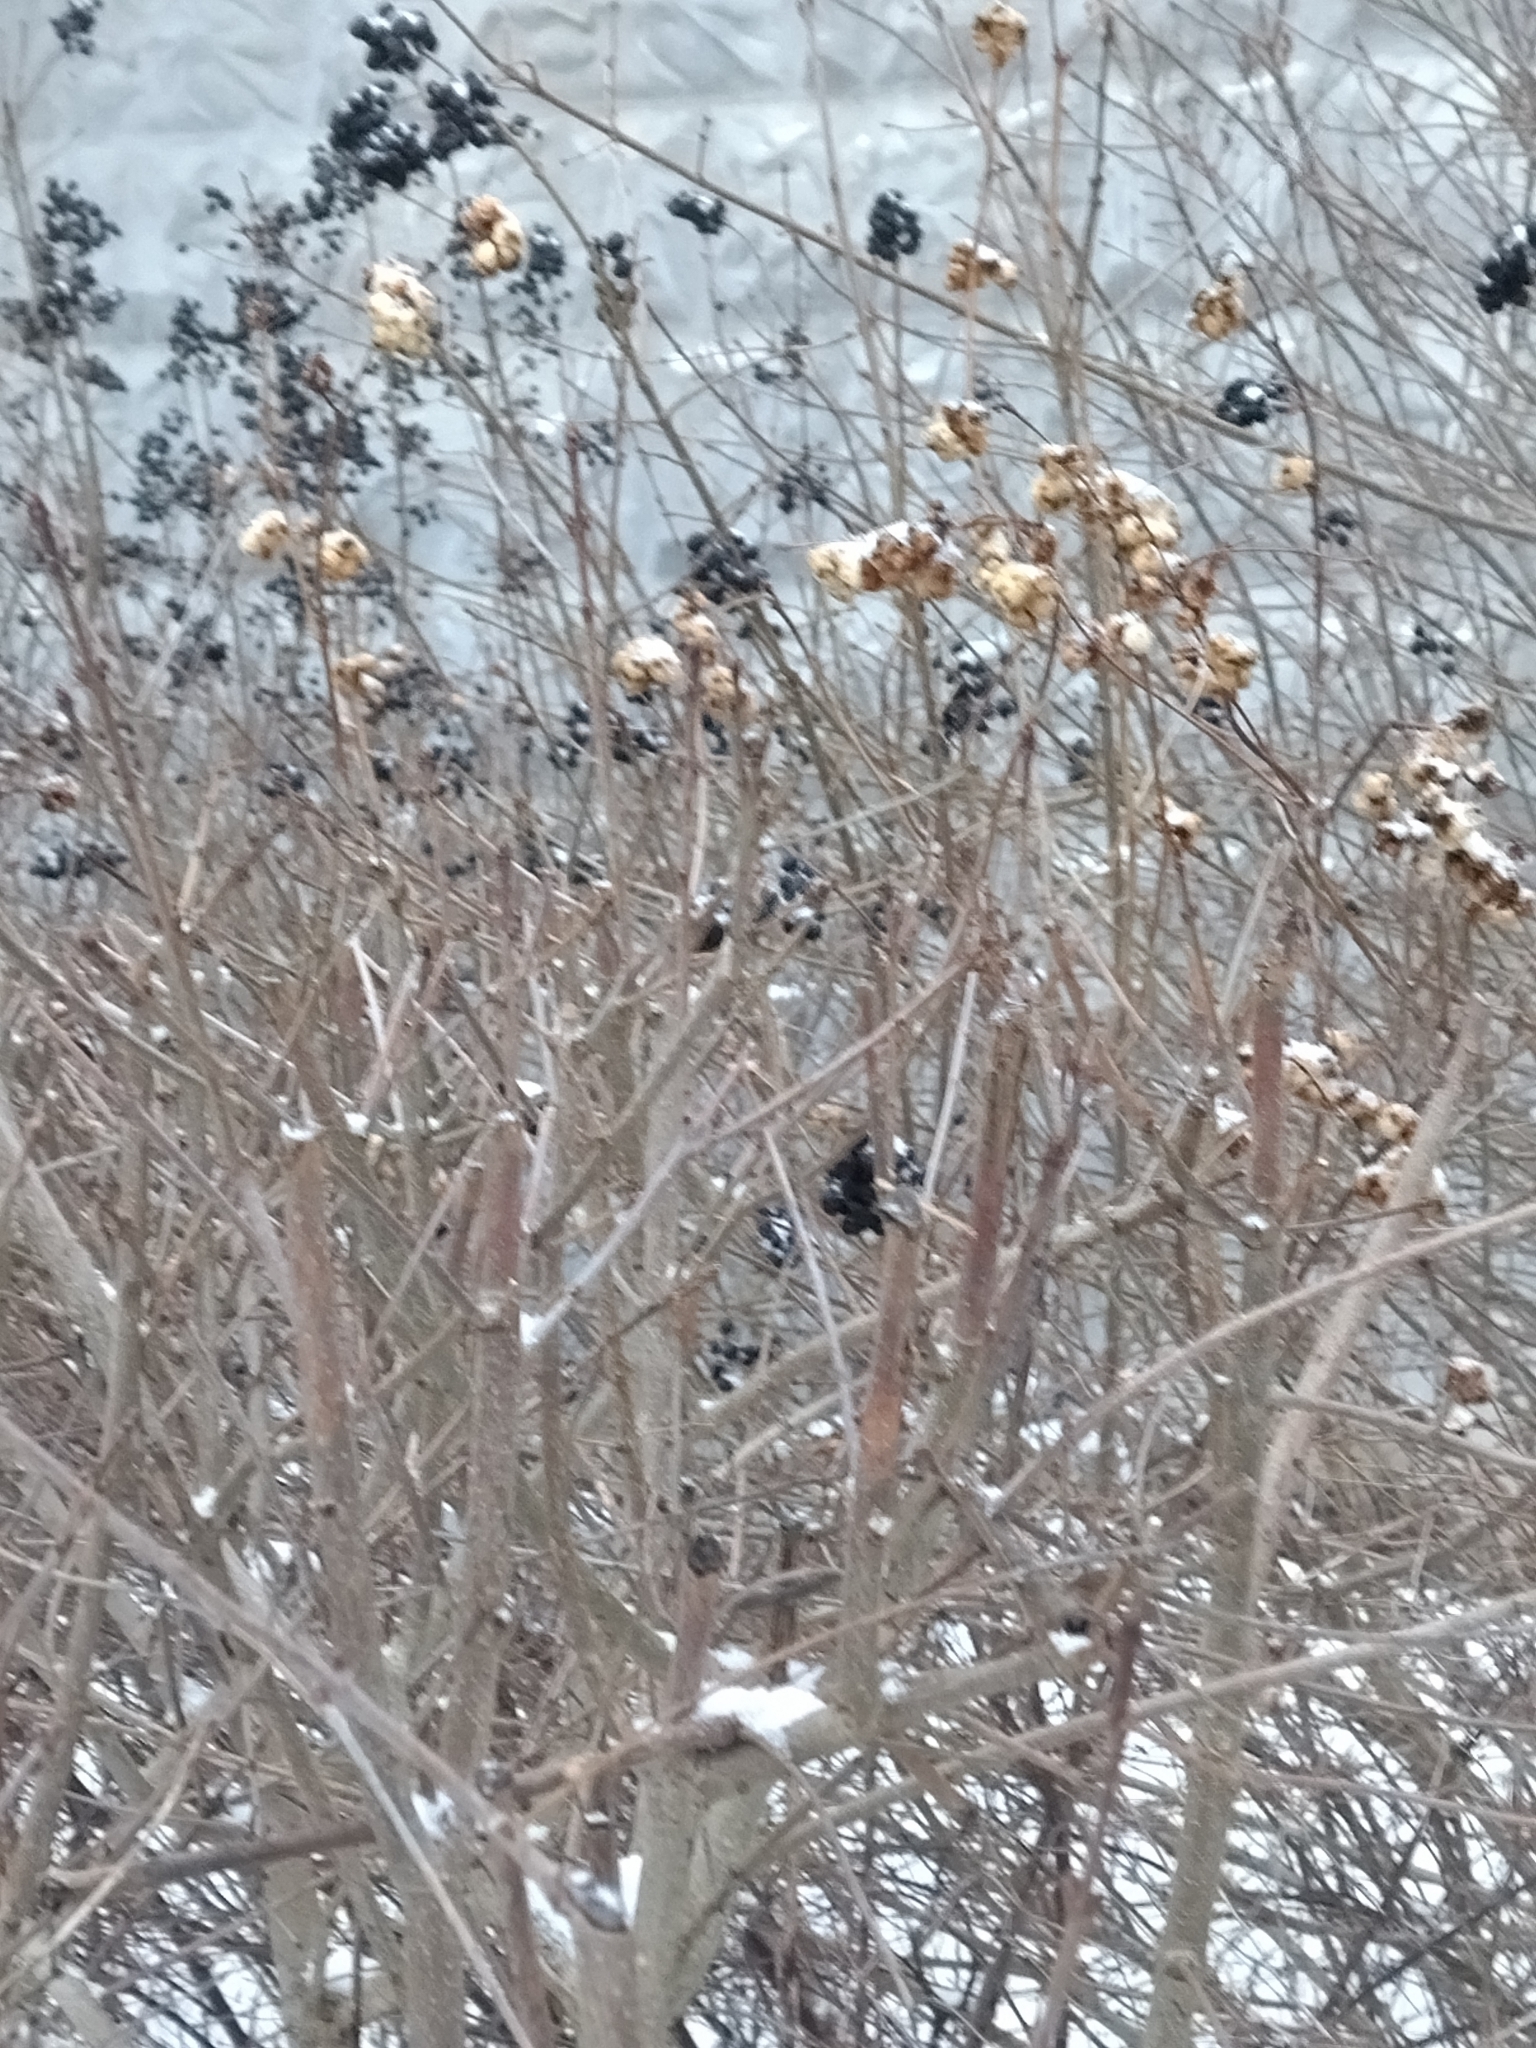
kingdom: Plantae
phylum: Tracheophyta
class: Magnoliopsida
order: Dipsacales
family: Caprifoliaceae
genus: Symphoricarpos
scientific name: Symphoricarpos albus
